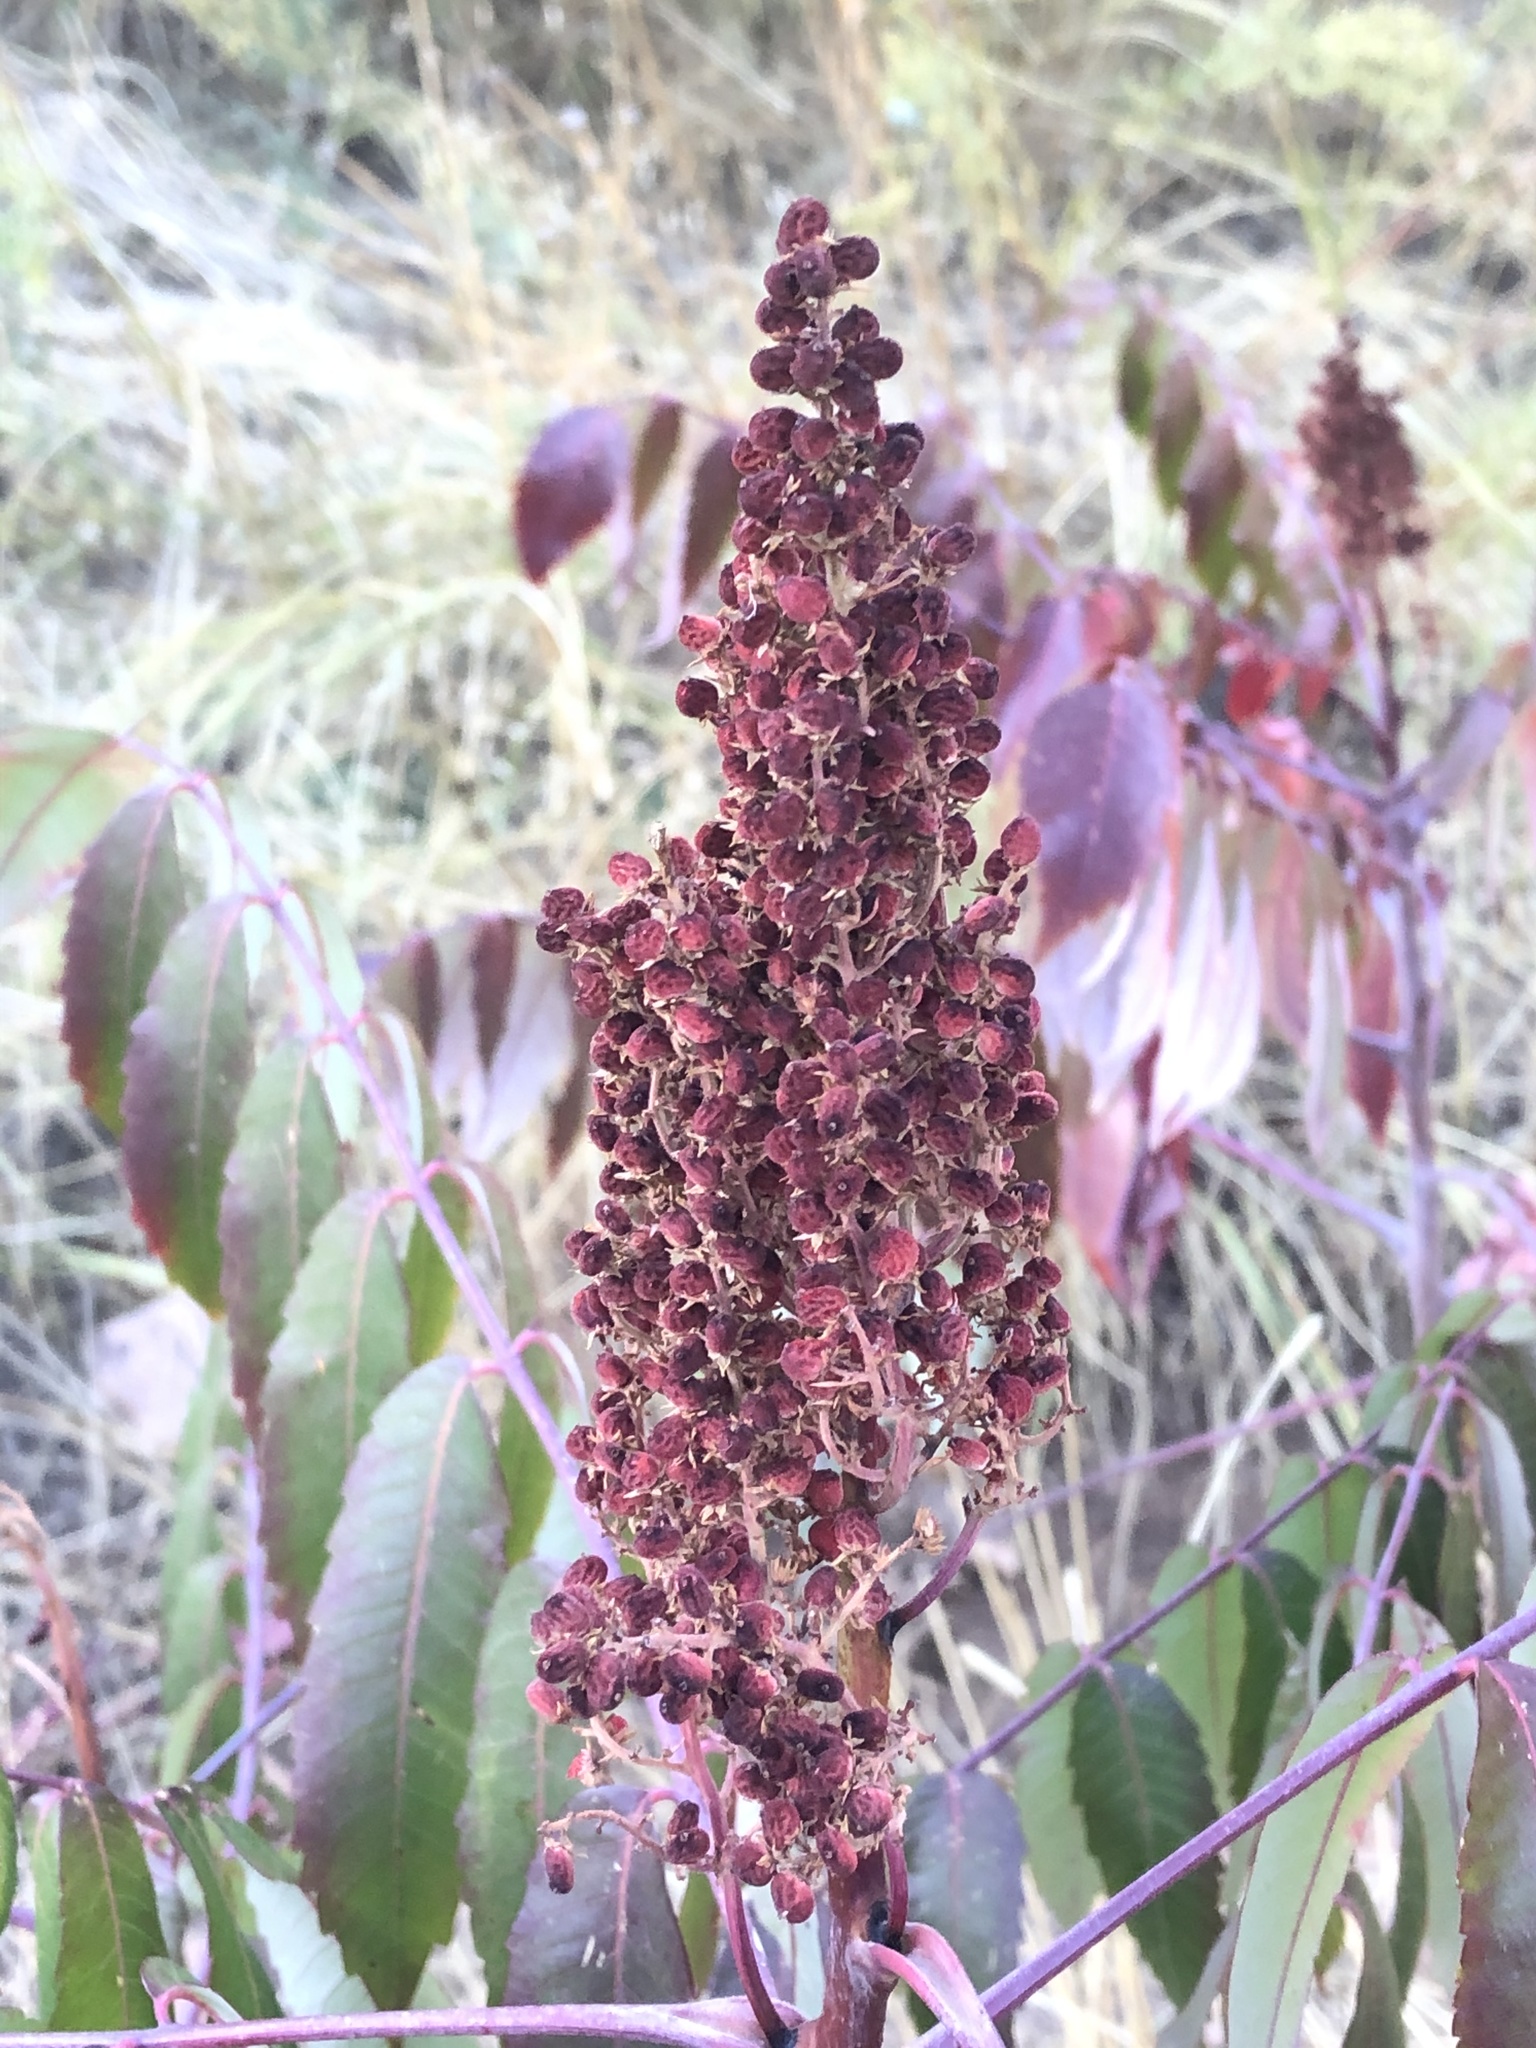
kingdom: Plantae
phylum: Tracheophyta
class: Magnoliopsida
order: Sapindales
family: Anacardiaceae
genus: Rhus
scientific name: Rhus glabra
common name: Scarlet sumac
